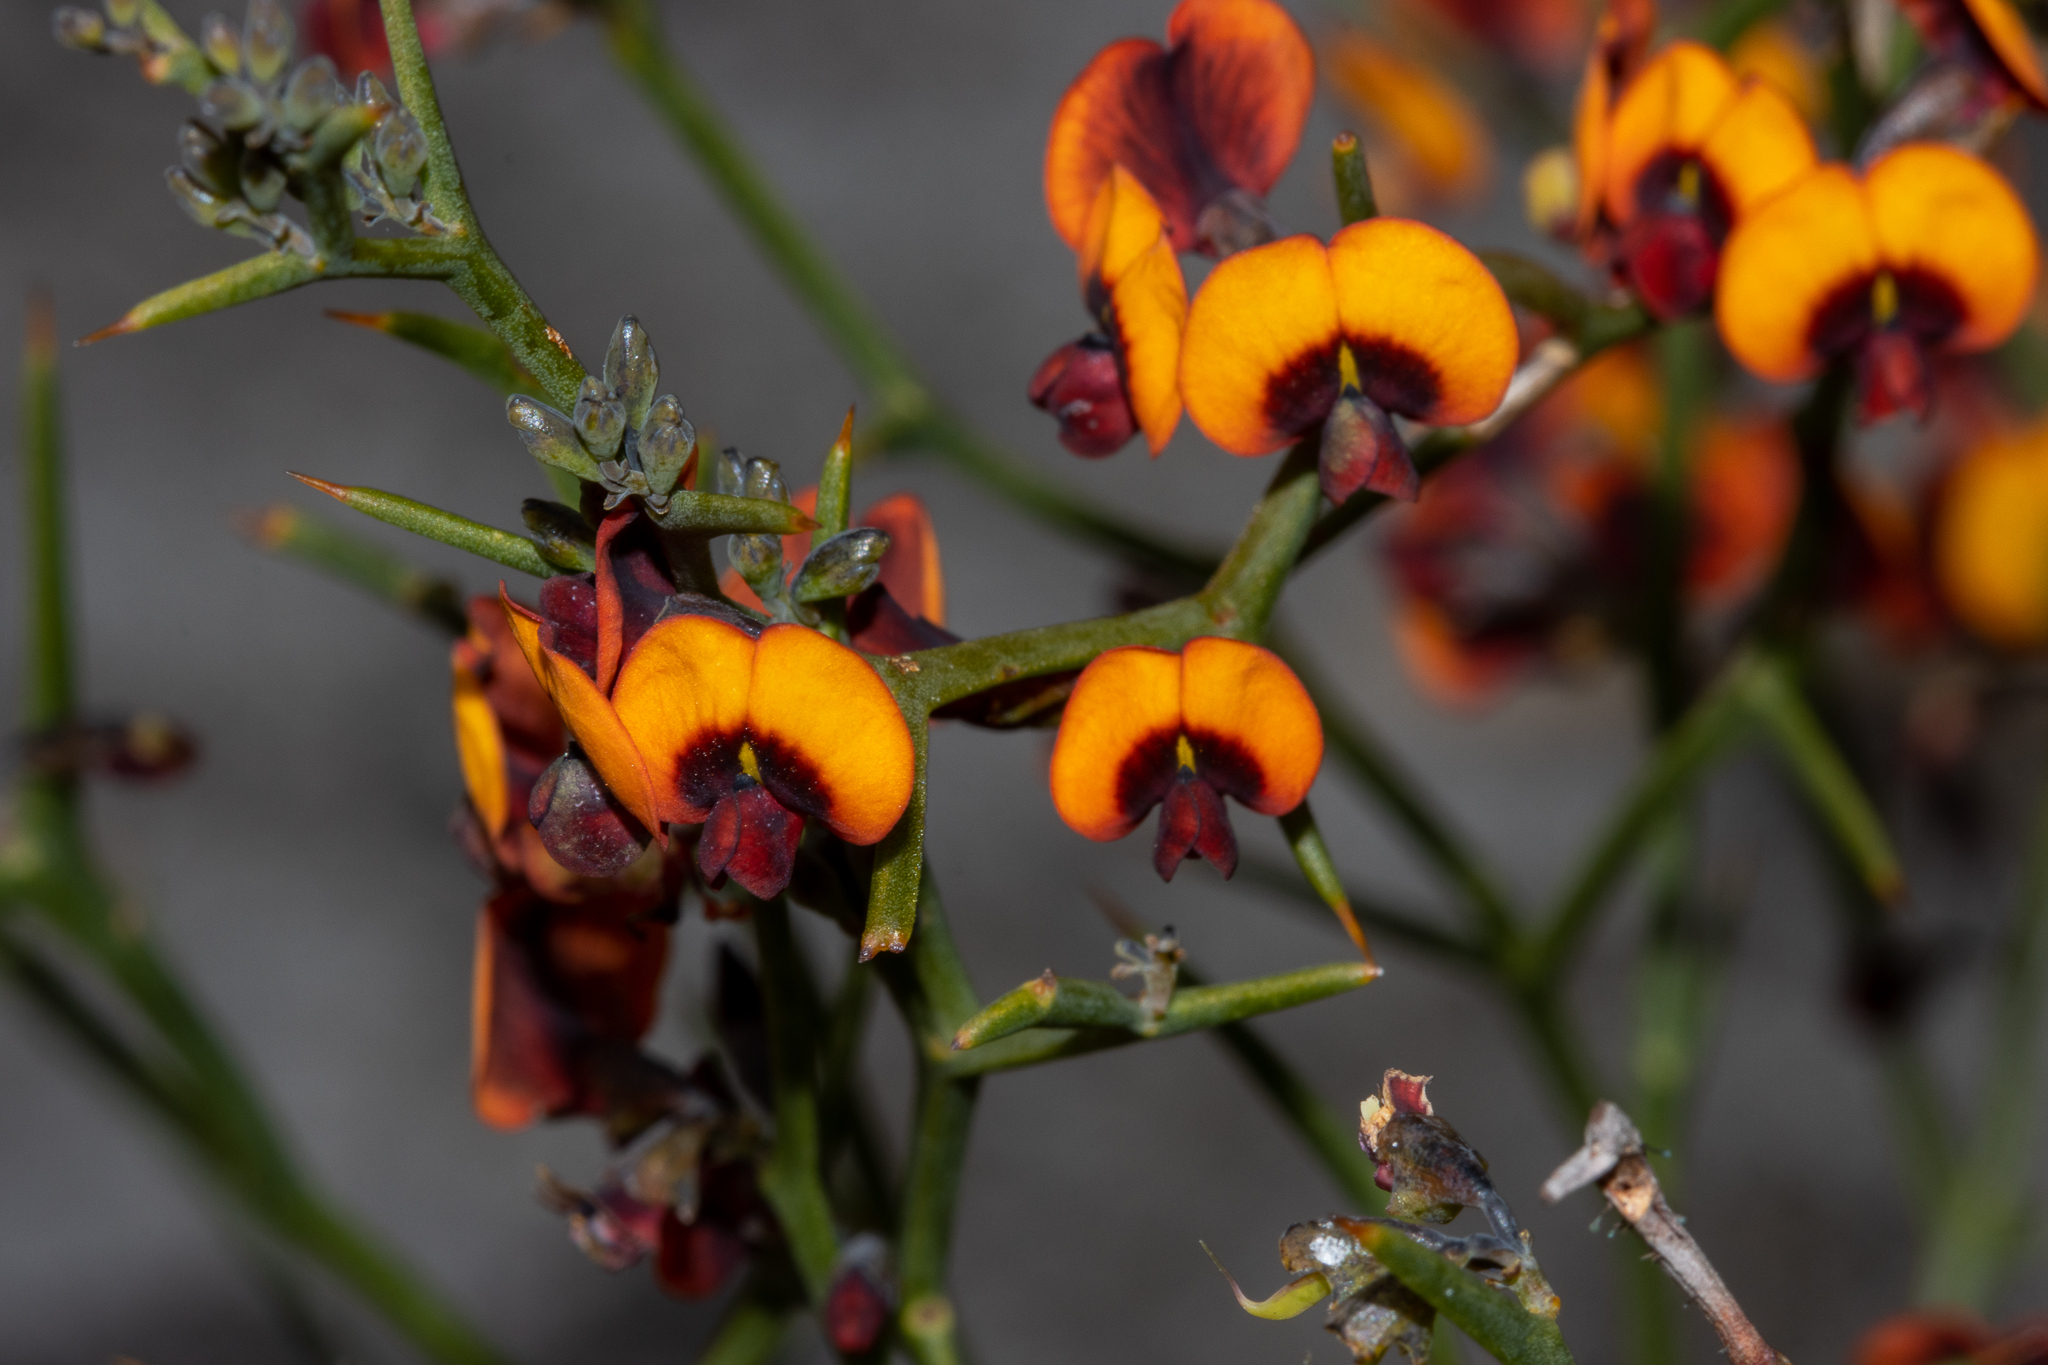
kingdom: Plantae
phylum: Tracheophyta
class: Magnoliopsida
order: Fabales
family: Fabaceae
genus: Daviesia
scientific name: Daviesia flexuosa
